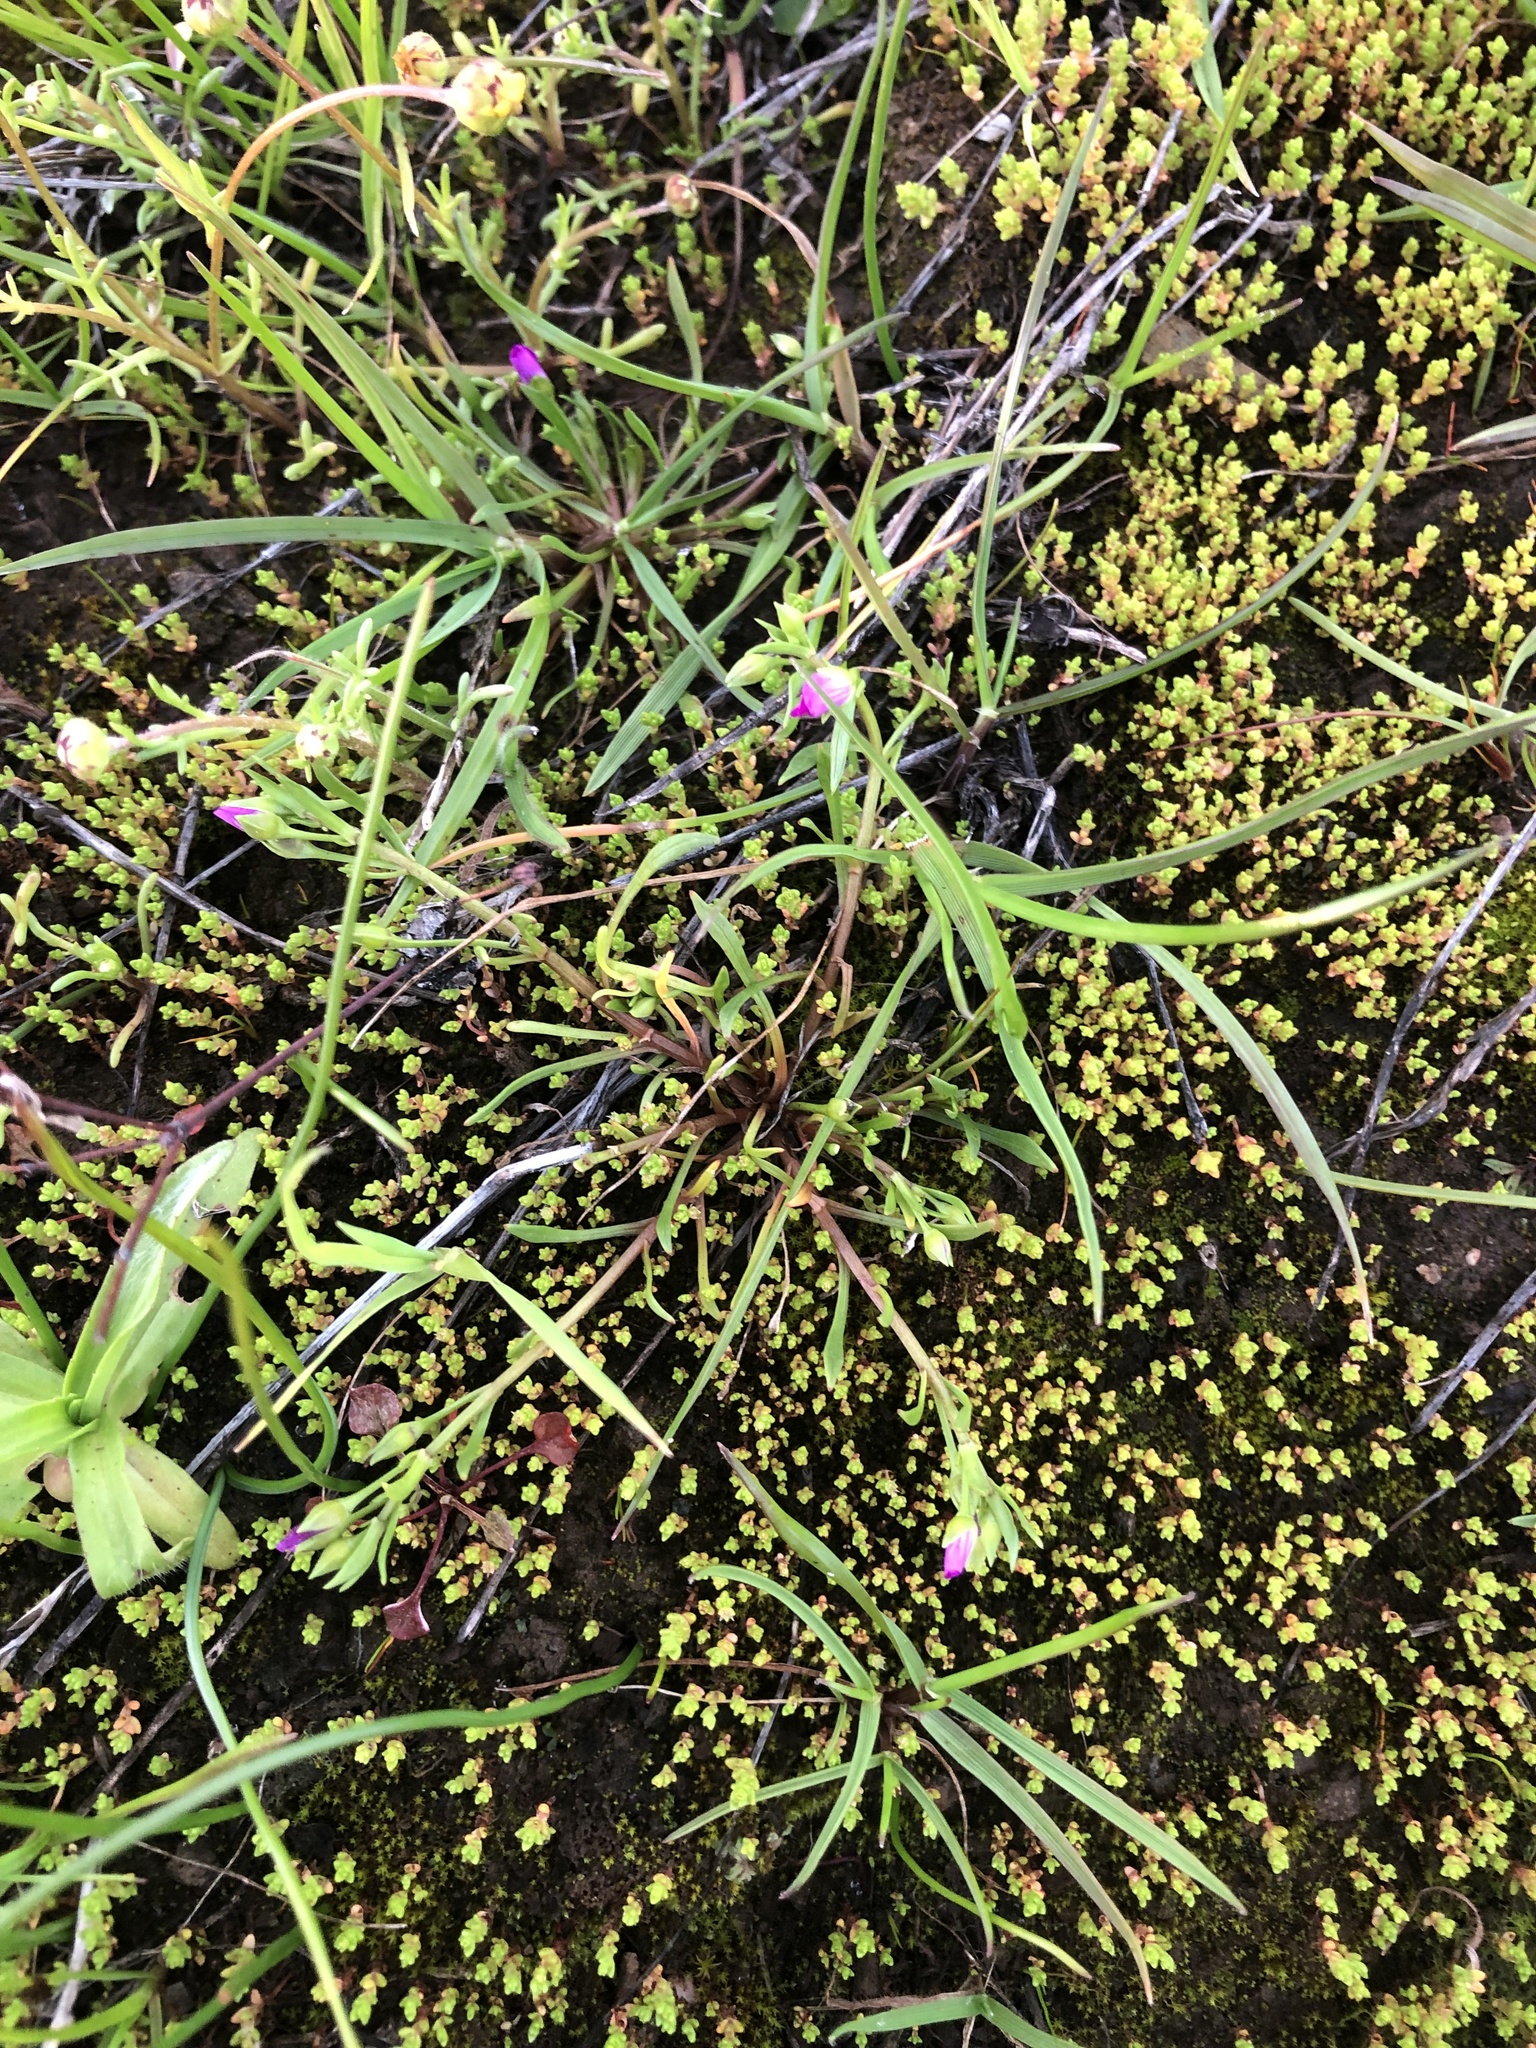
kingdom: Plantae
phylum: Tracheophyta
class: Magnoliopsida
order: Caryophyllales
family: Montiaceae
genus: Calandrinia
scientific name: Calandrinia menziesii
